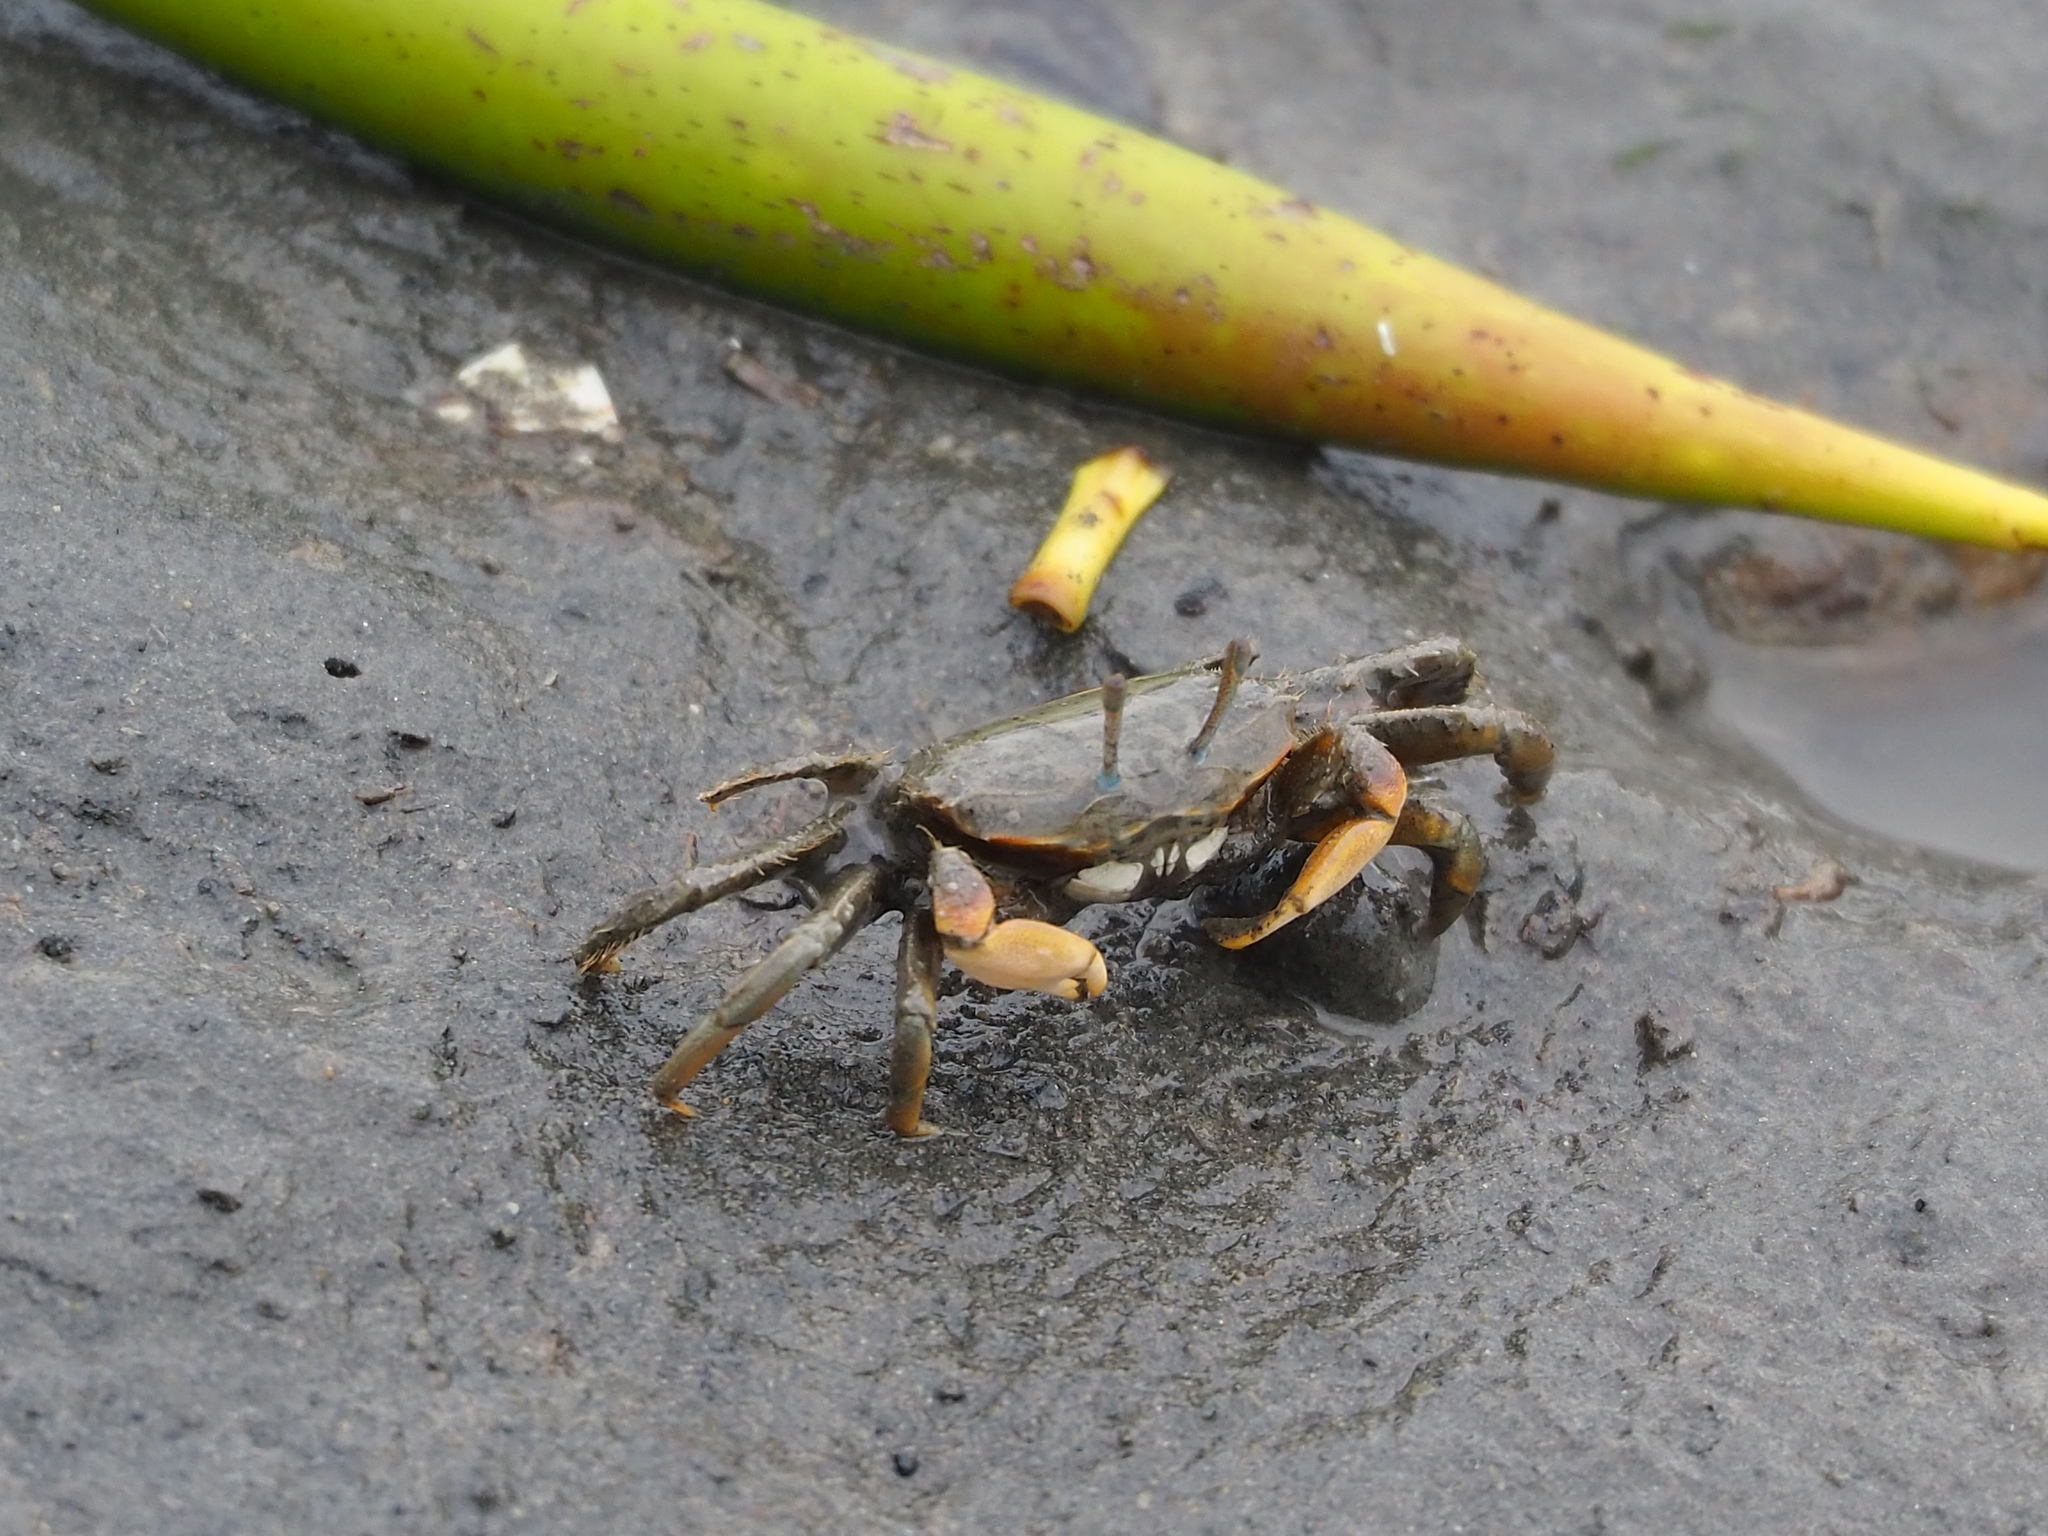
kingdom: Animalia
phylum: Arthropoda
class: Malacostraca
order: Decapoda
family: Macrophthalmidae
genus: Macrophthalmus
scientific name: Macrophthalmus banzai
